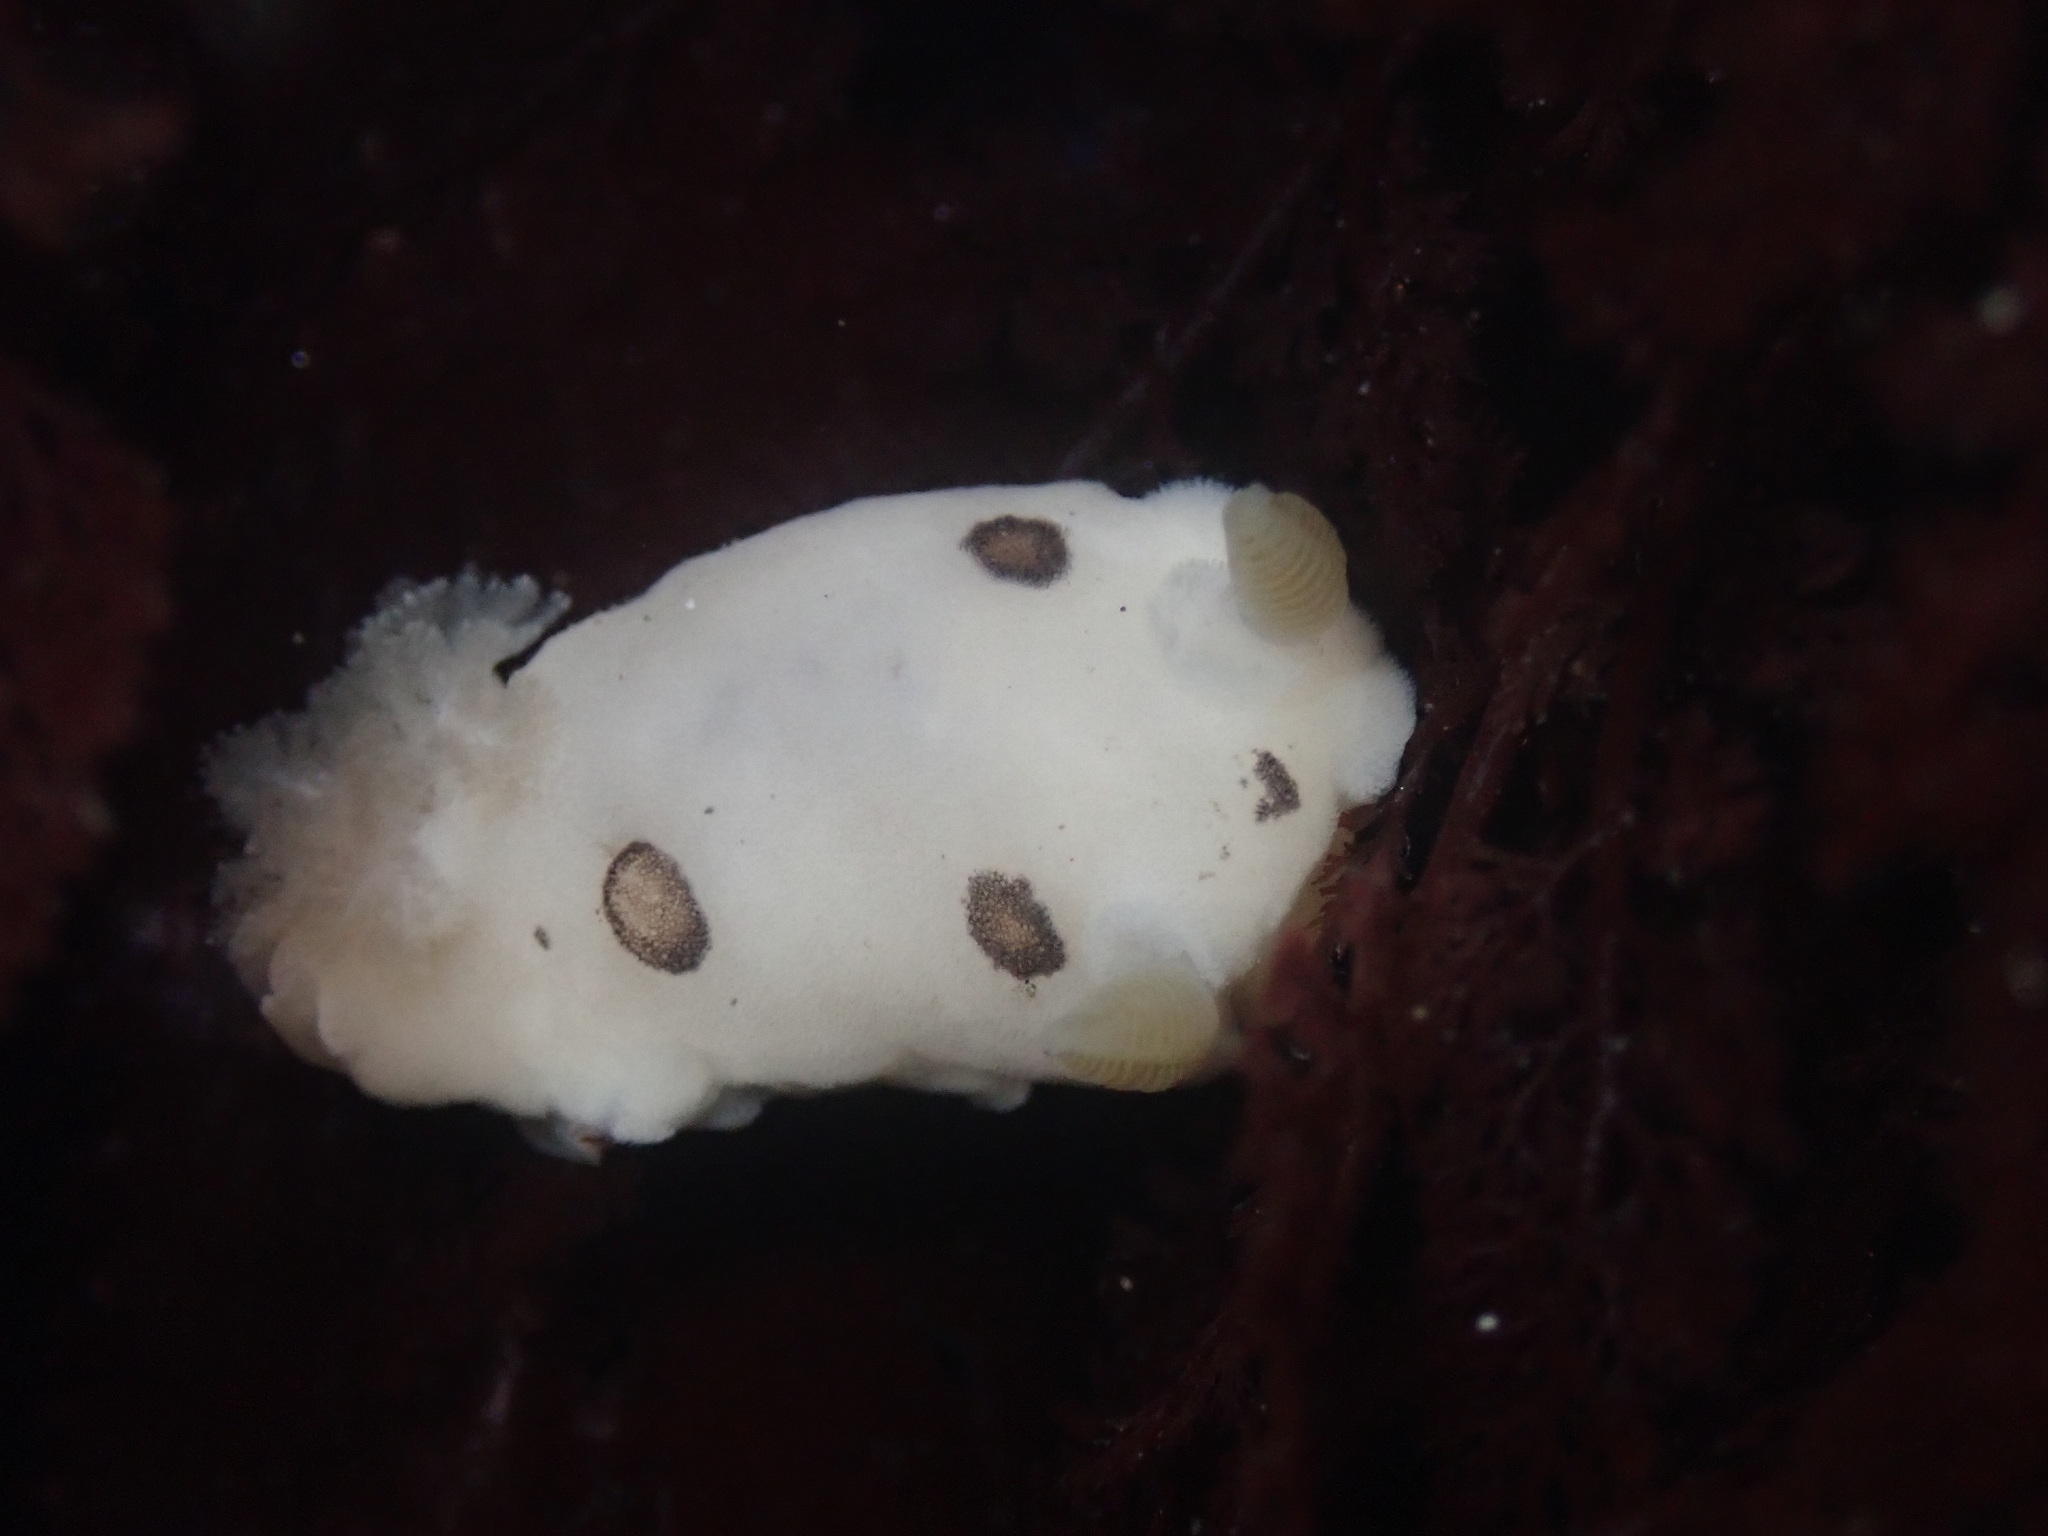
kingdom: Animalia
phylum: Mollusca
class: Gastropoda
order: Nudibranchia
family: Discodorididae
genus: Diaulula
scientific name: Diaulula sandiegensis
